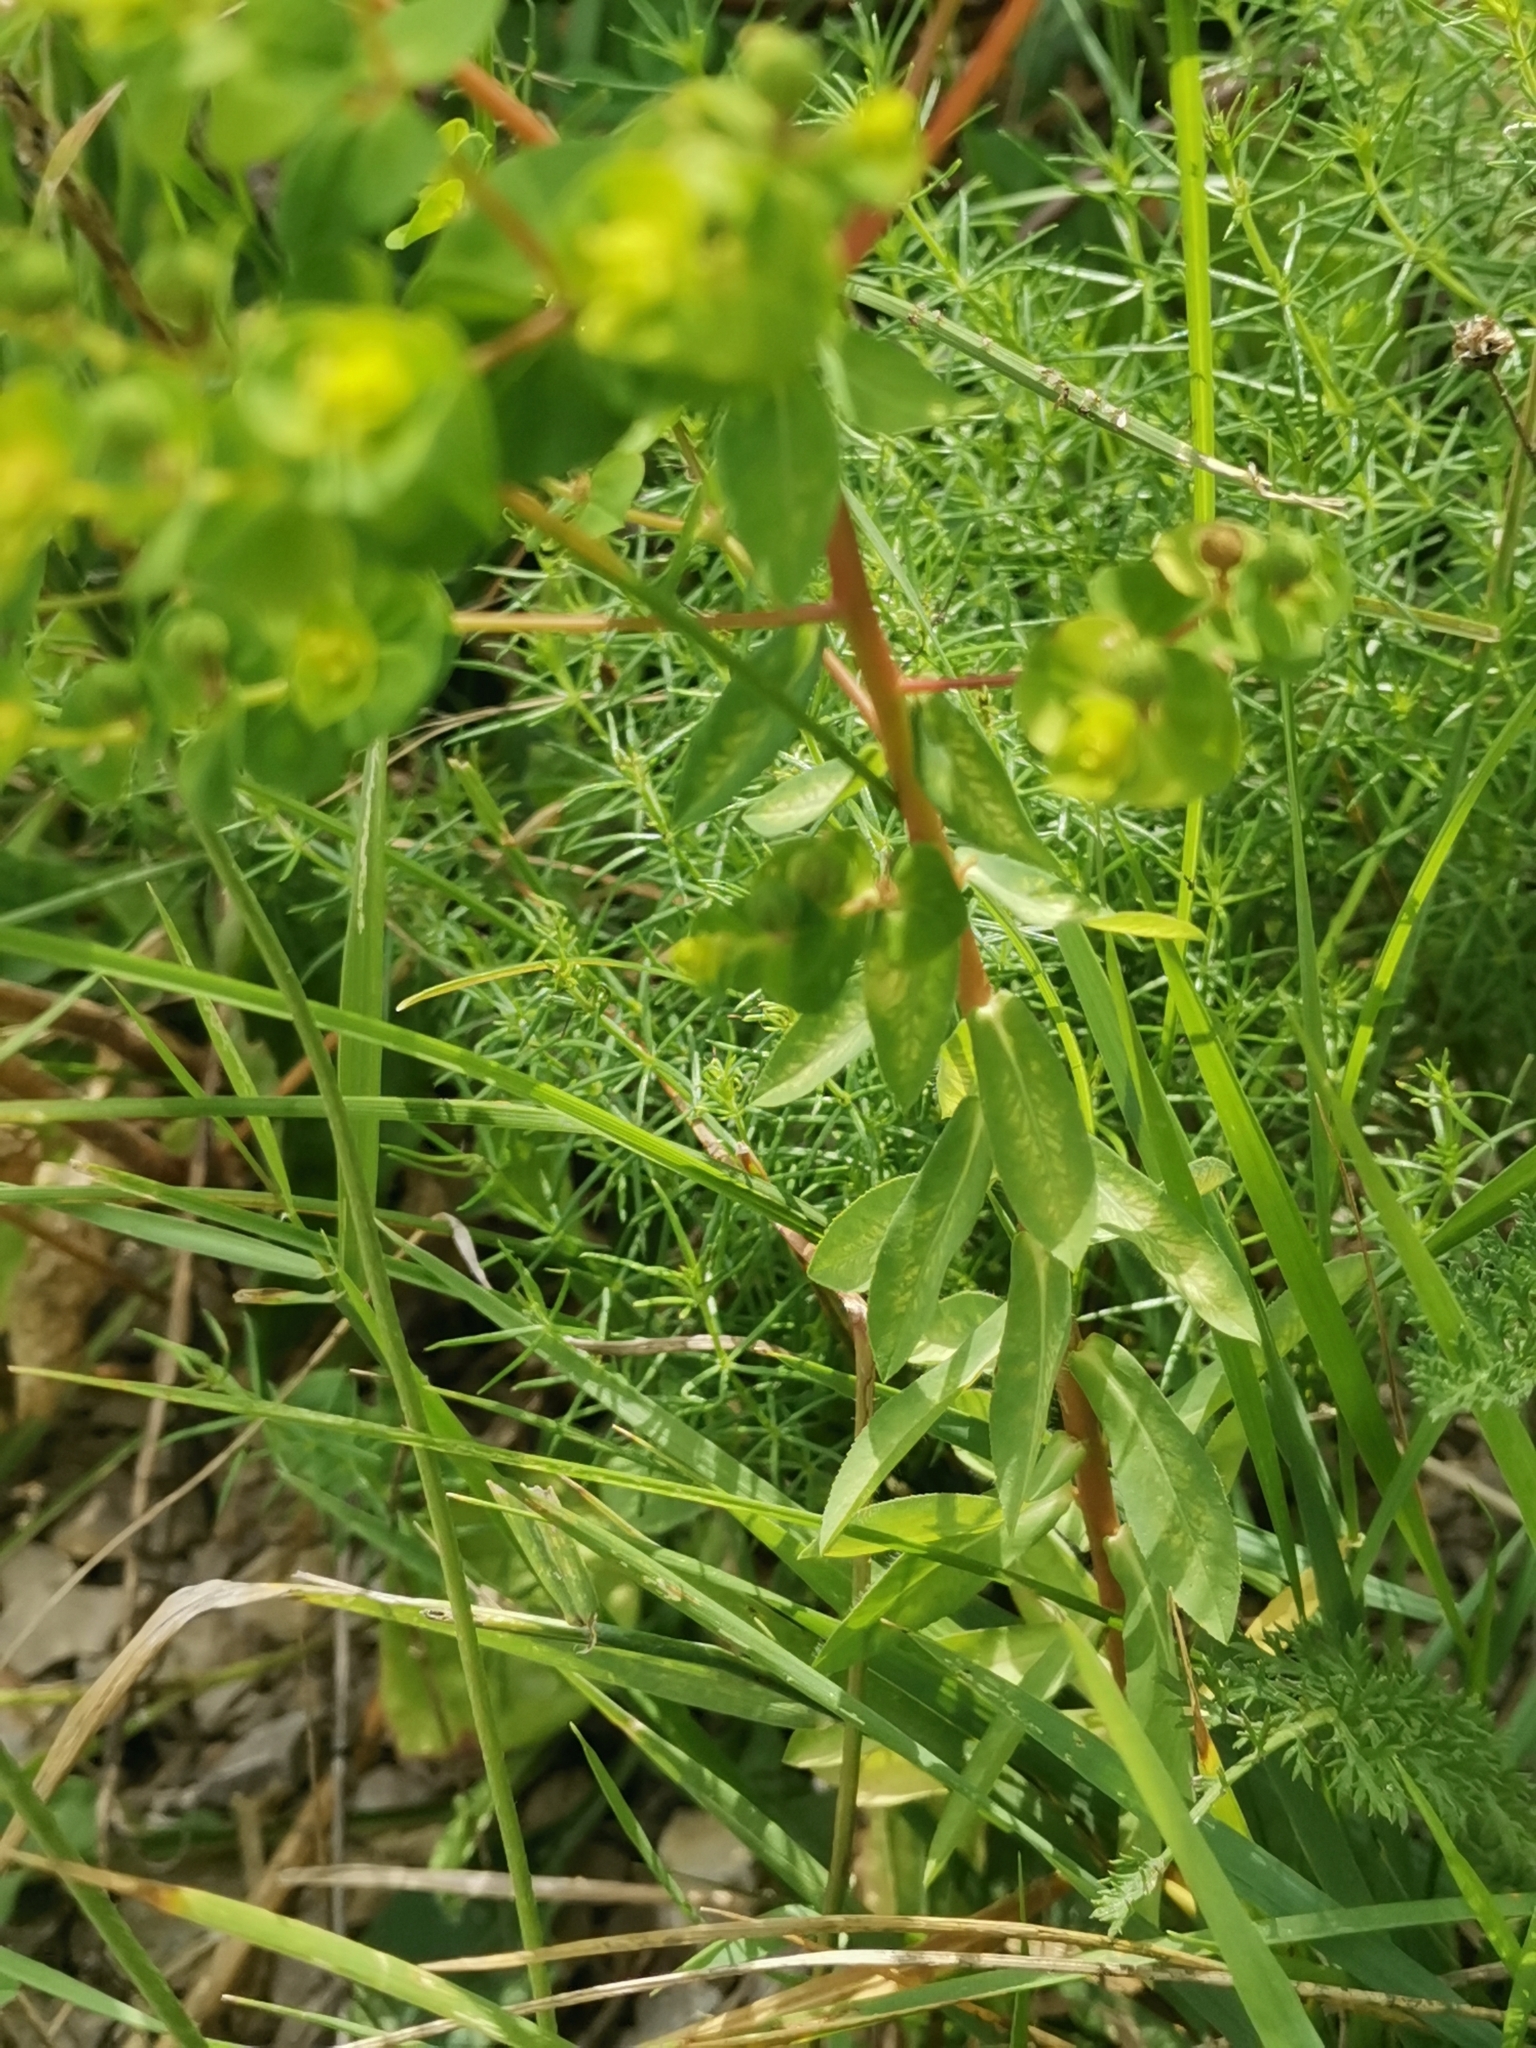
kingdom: Plantae
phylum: Tracheophyta
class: Magnoliopsida
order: Malpighiales
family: Euphorbiaceae
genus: Euphorbia
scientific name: Euphorbia platyphyllos
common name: Broad-leaved spurge
